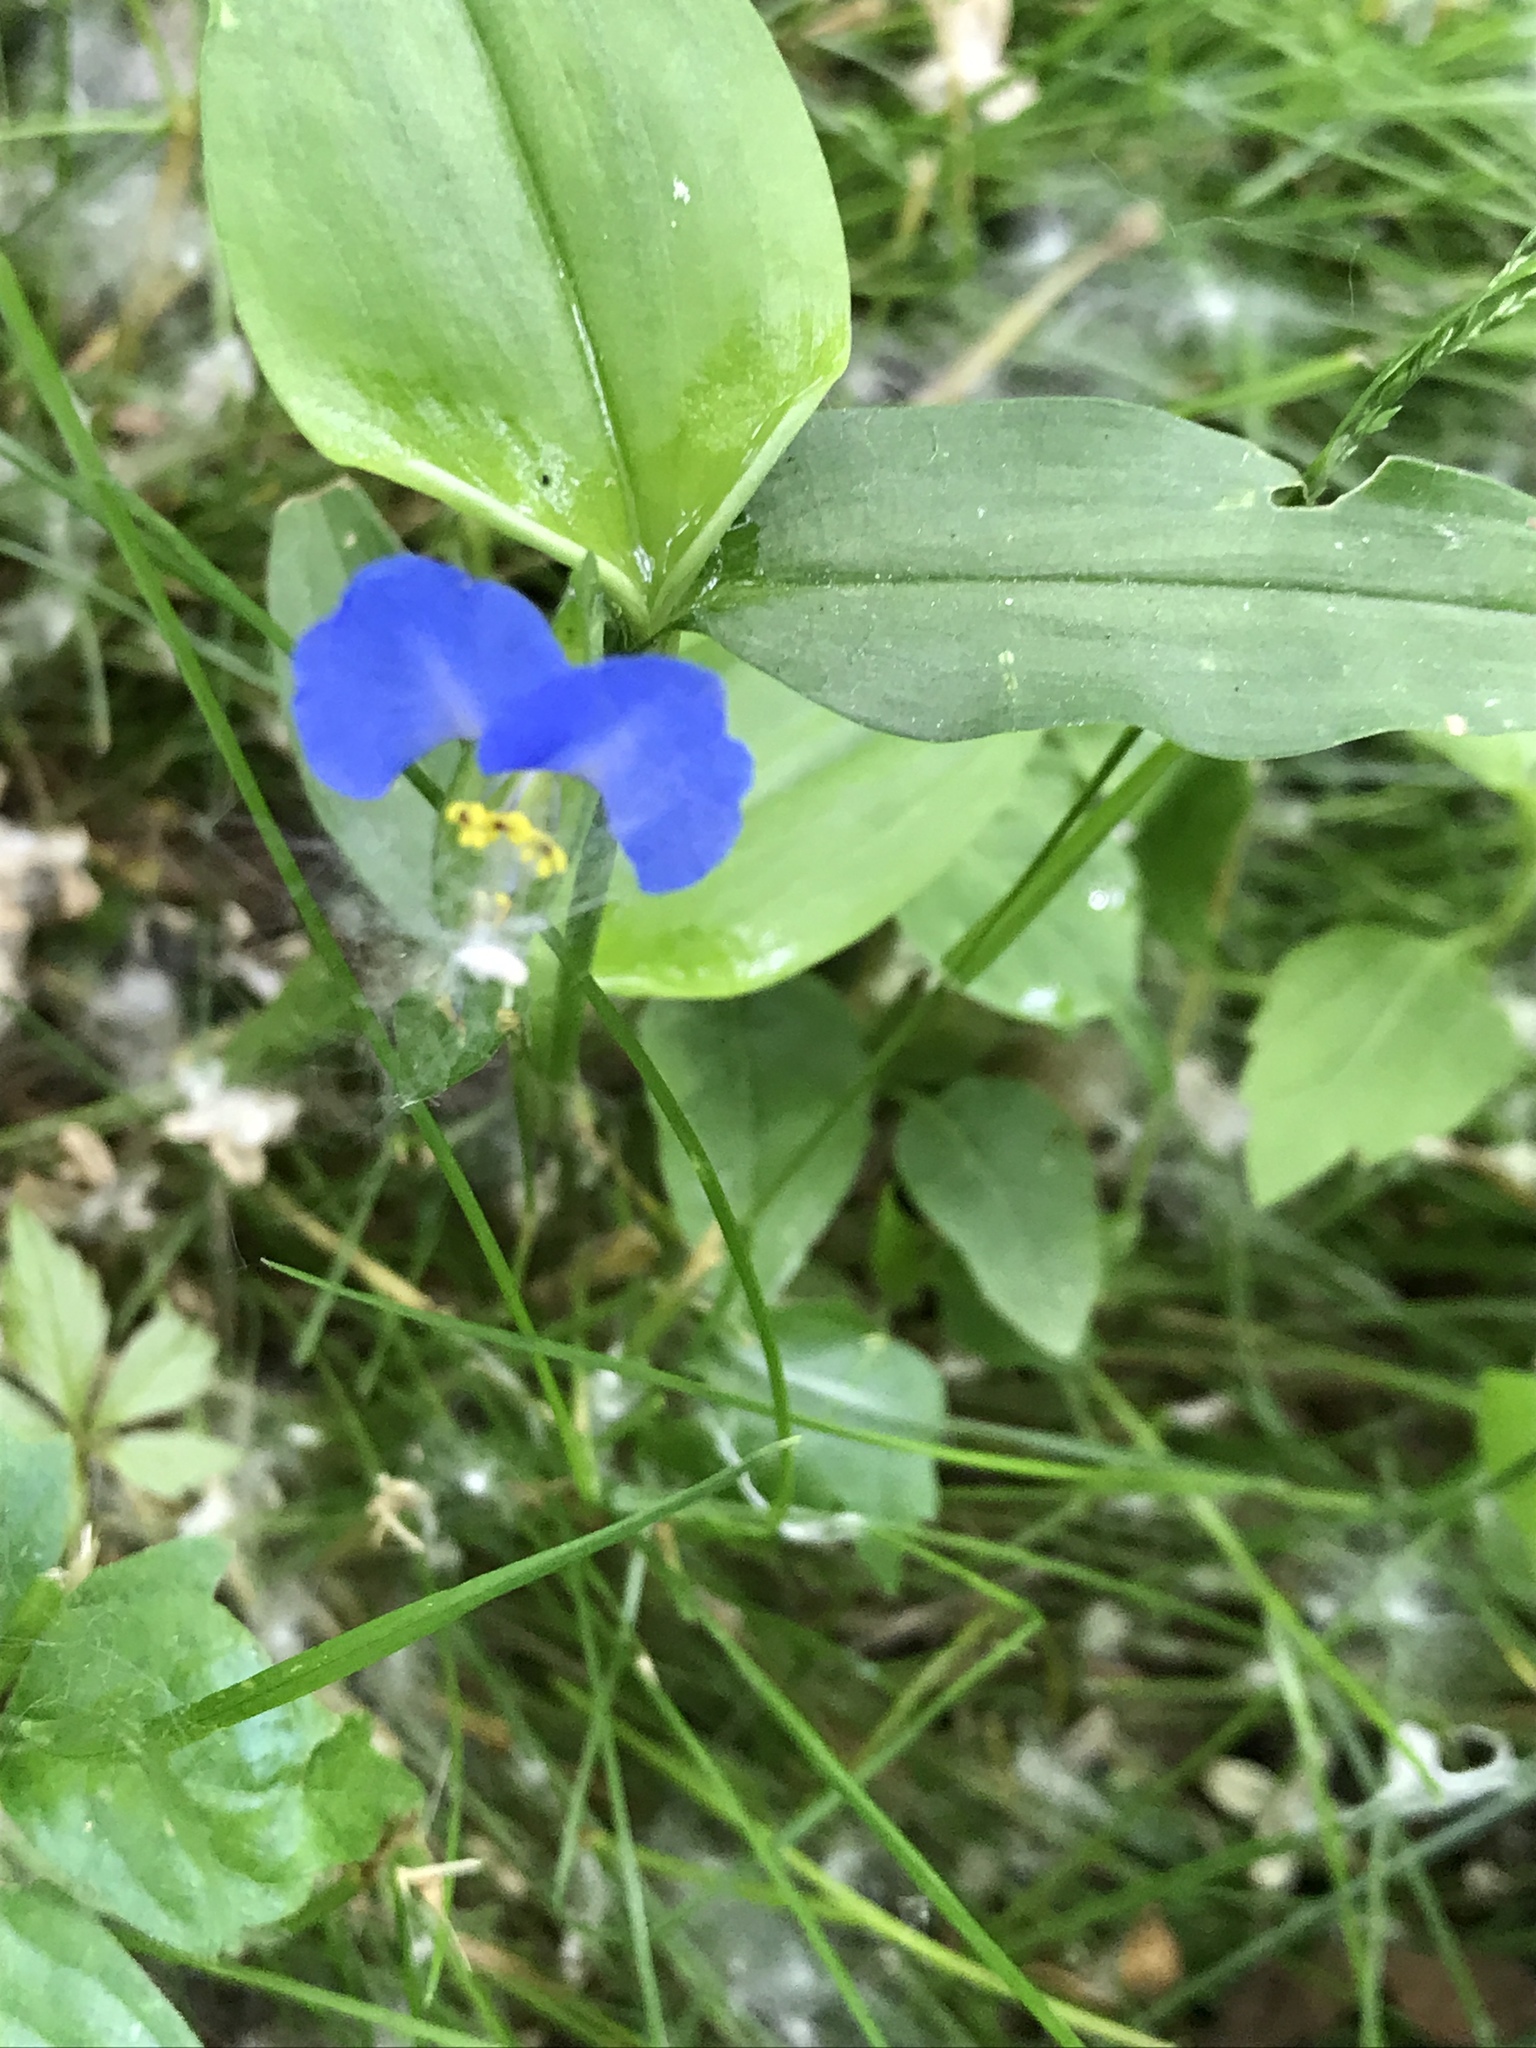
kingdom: Plantae
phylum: Tracheophyta
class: Liliopsida
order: Commelinales
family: Commelinaceae
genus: Commelina
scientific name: Commelina communis
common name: Asiatic dayflower
